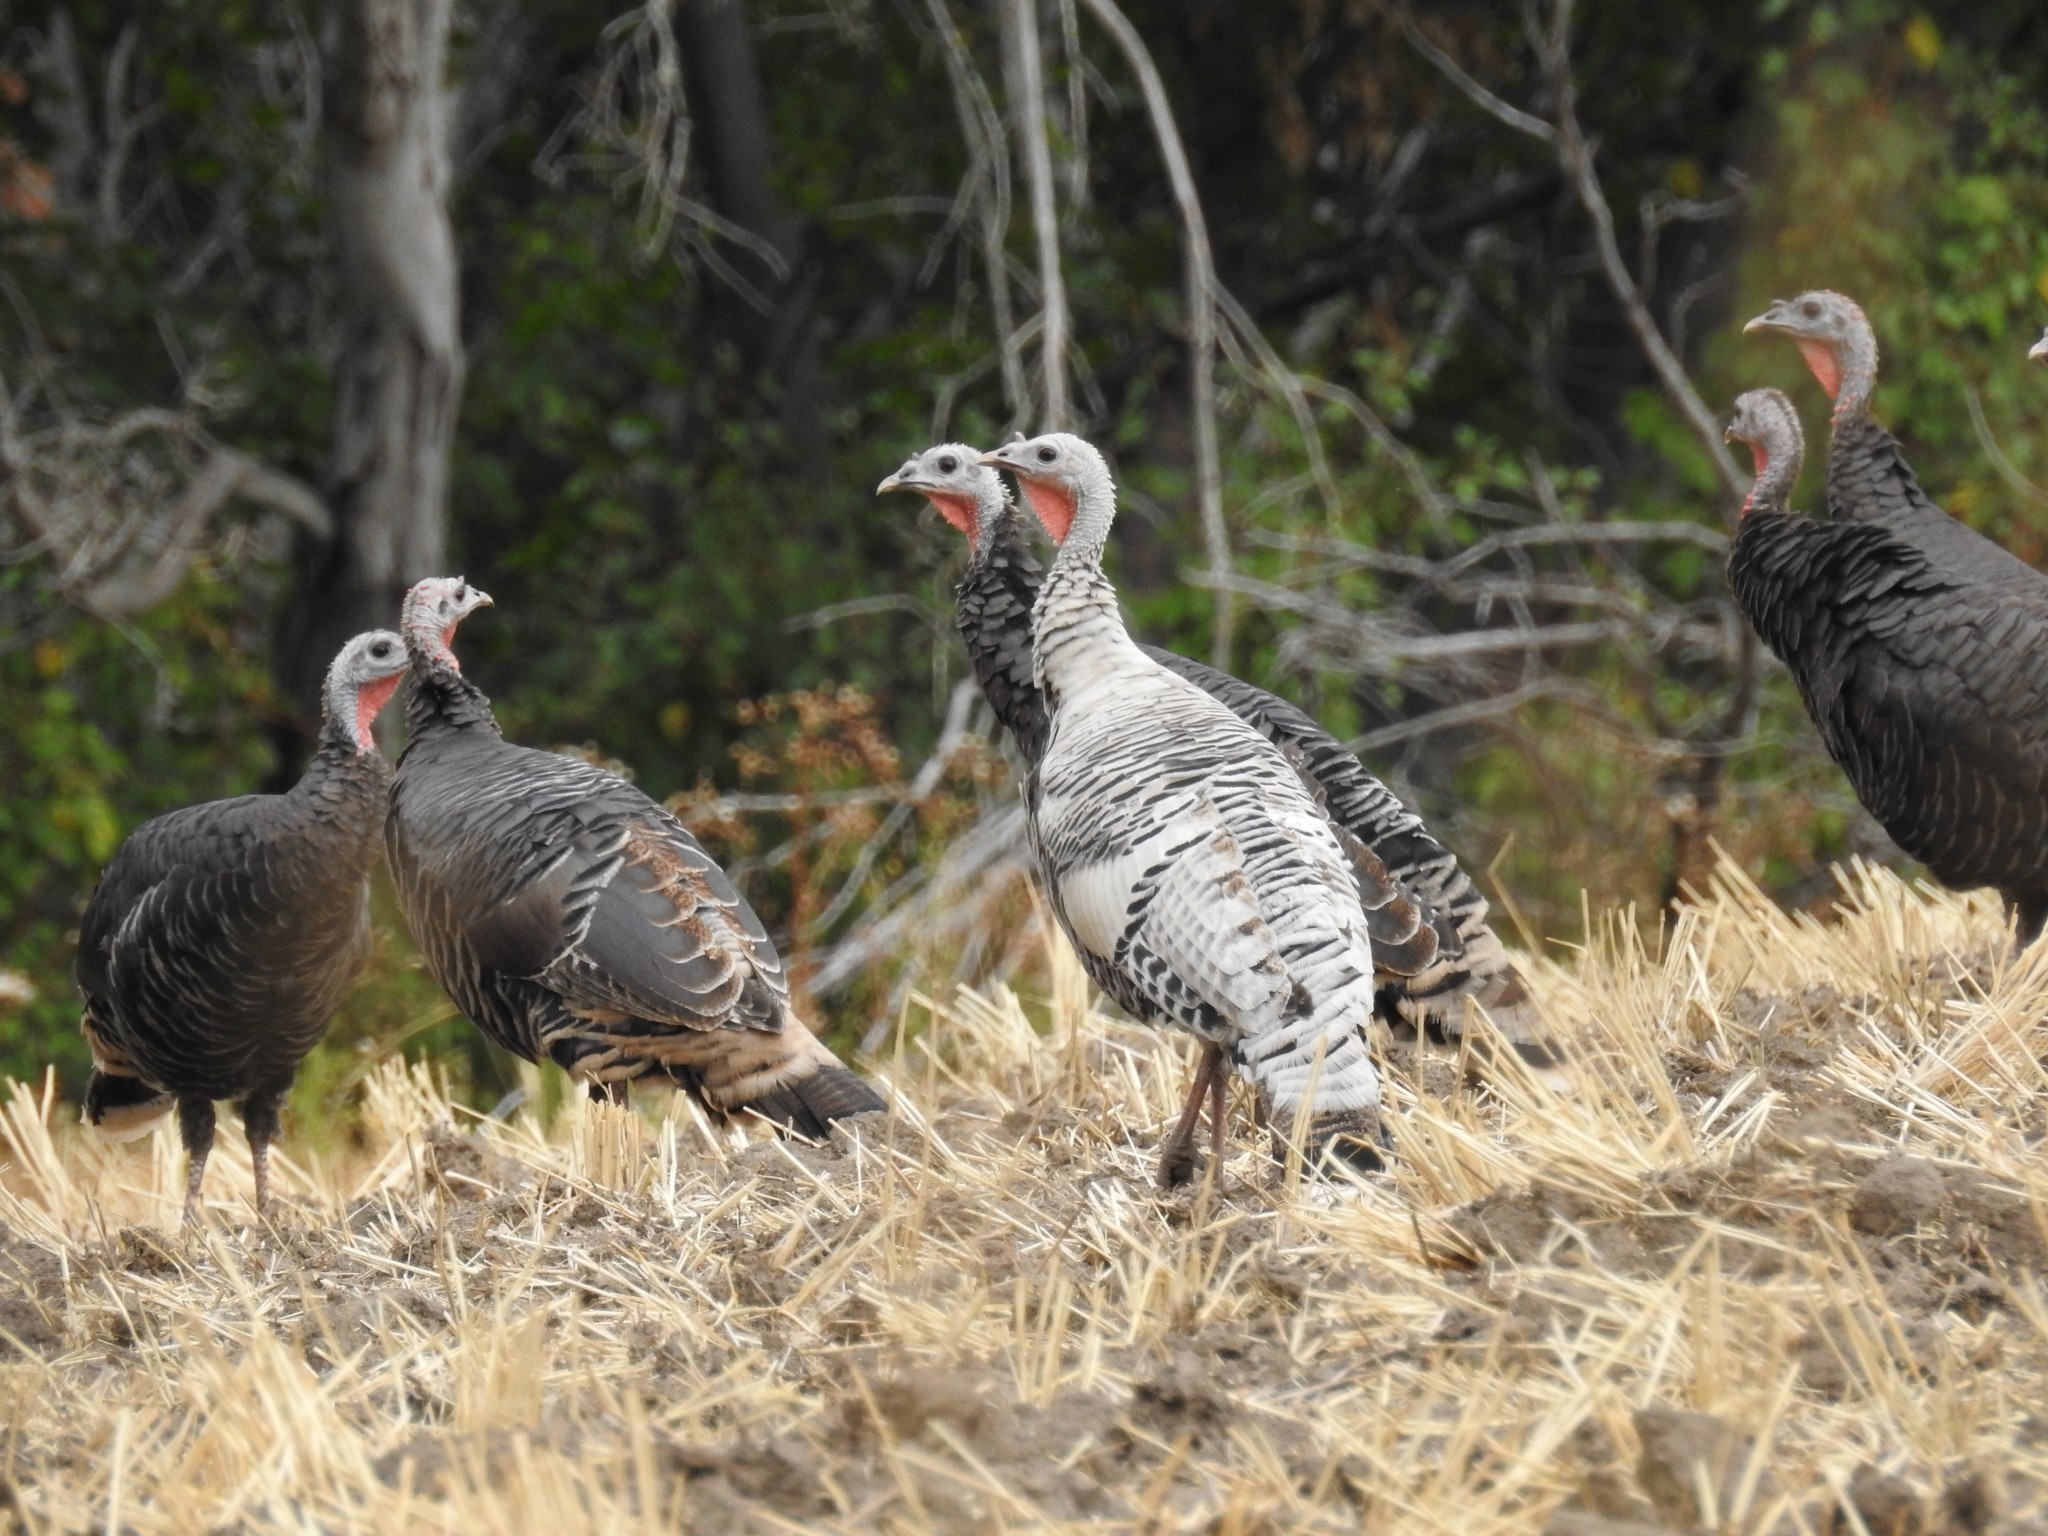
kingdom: Animalia
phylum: Chordata
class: Aves
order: Galliformes
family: Phasianidae
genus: Meleagris
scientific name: Meleagris gallopavo
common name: Wild turkey
